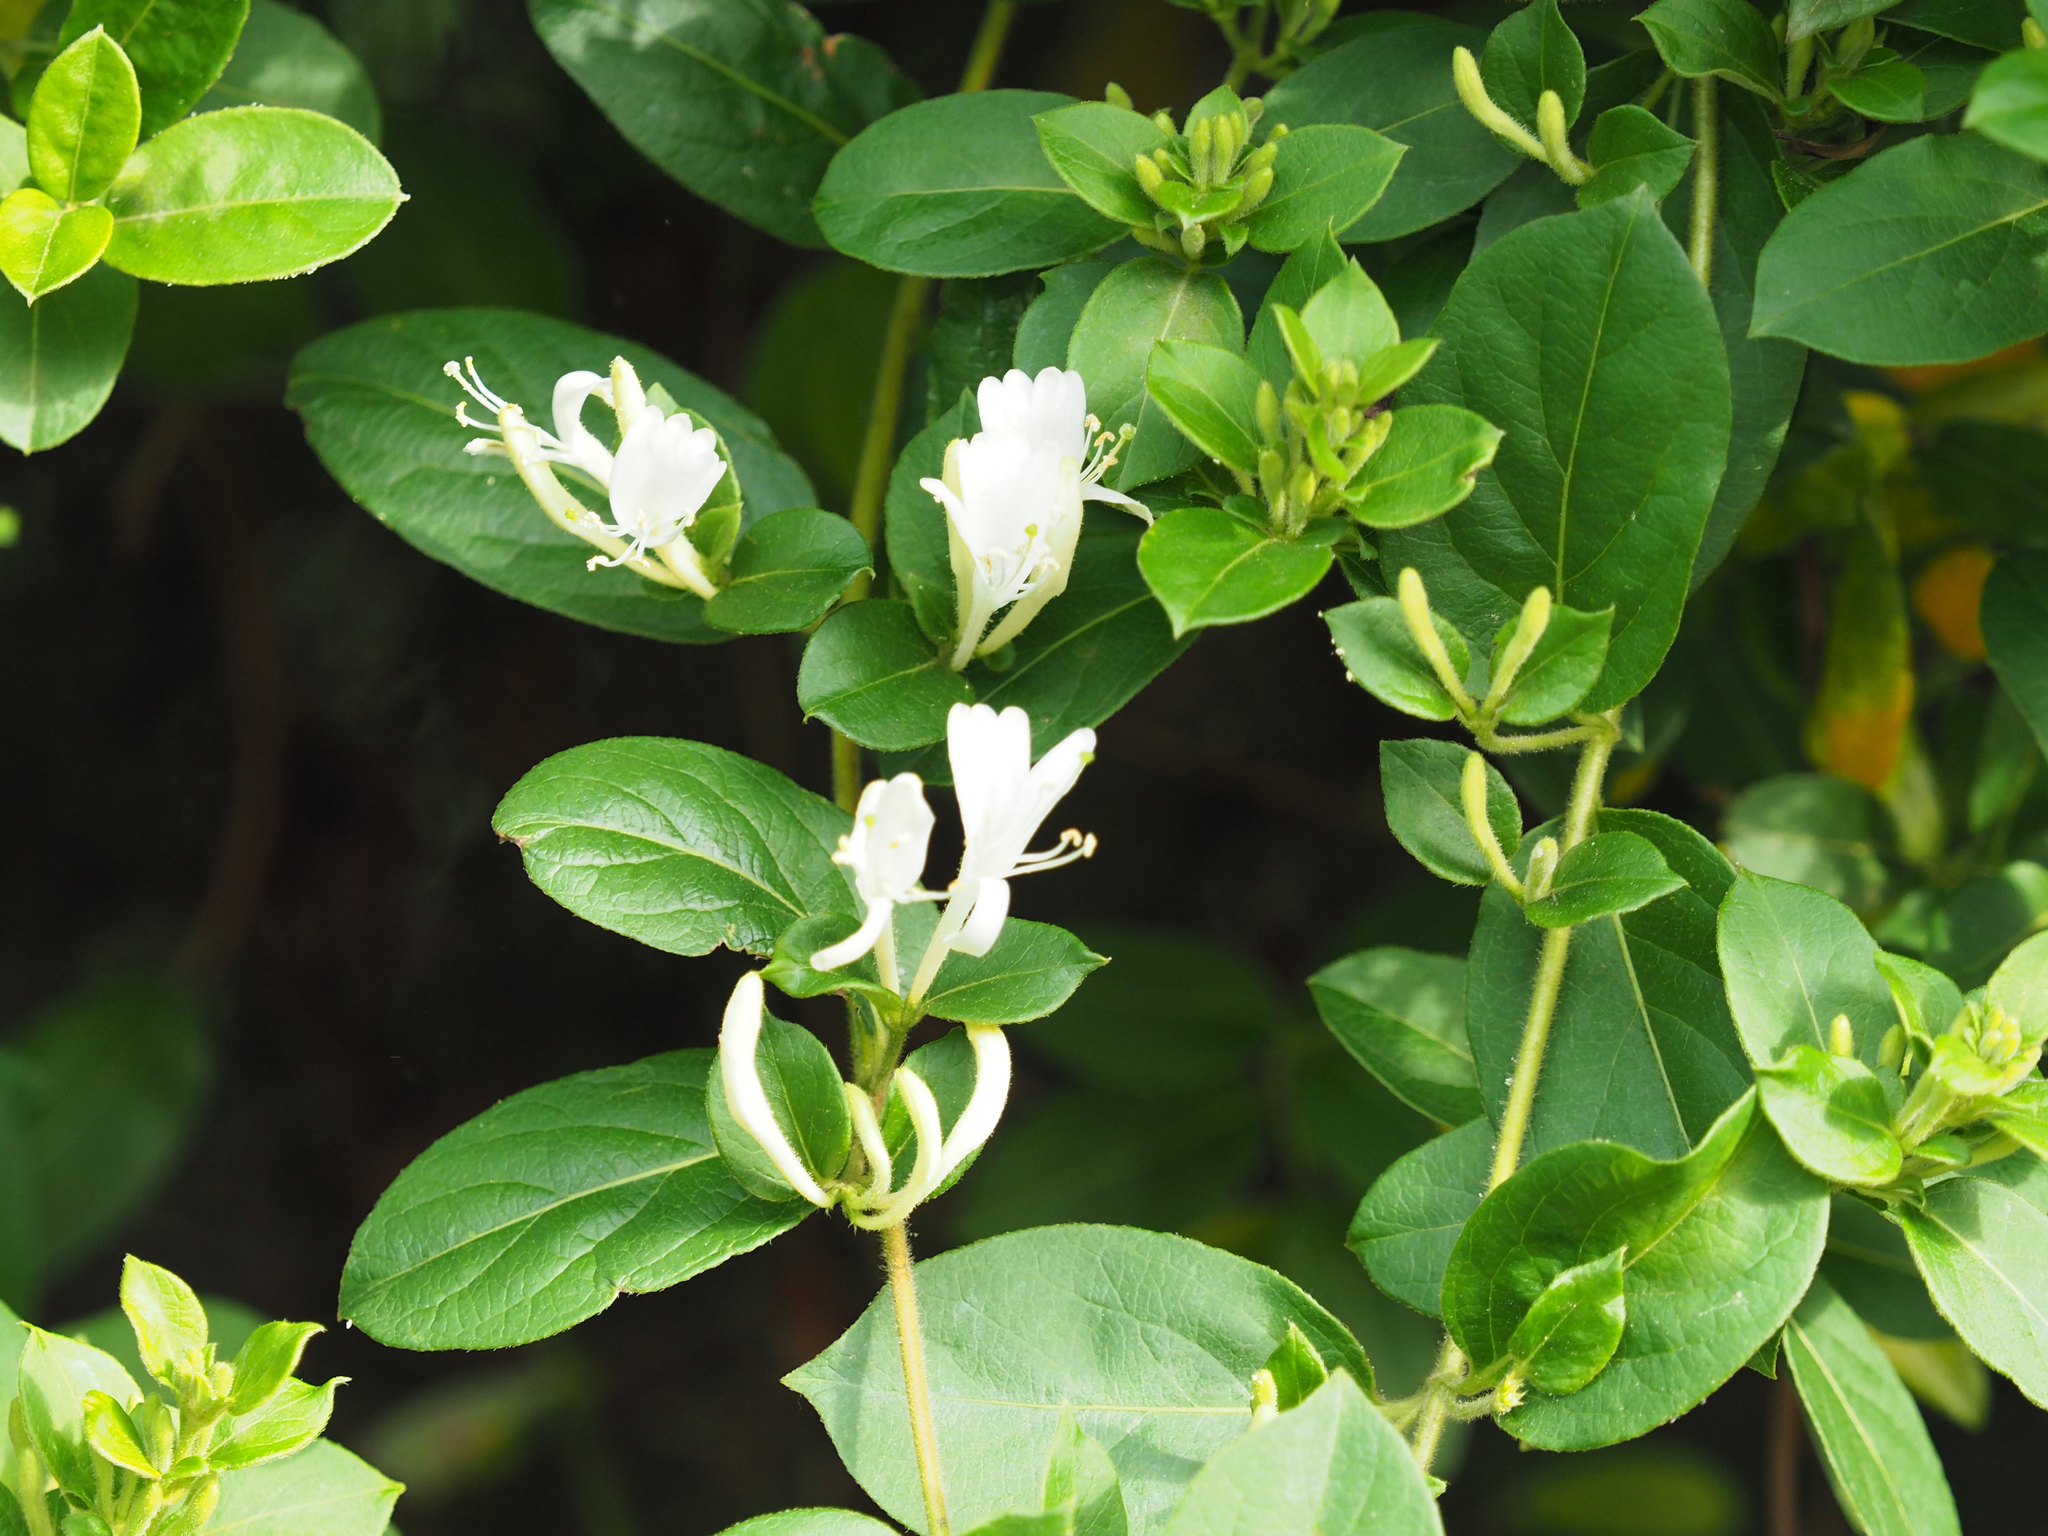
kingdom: Plantae
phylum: Tracheophyta
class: Magnoliopsida
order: Dipsacales
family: Caprifoliaceae
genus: Lonicera
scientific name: Lonicera japonica
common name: Japanese honeysuckle
